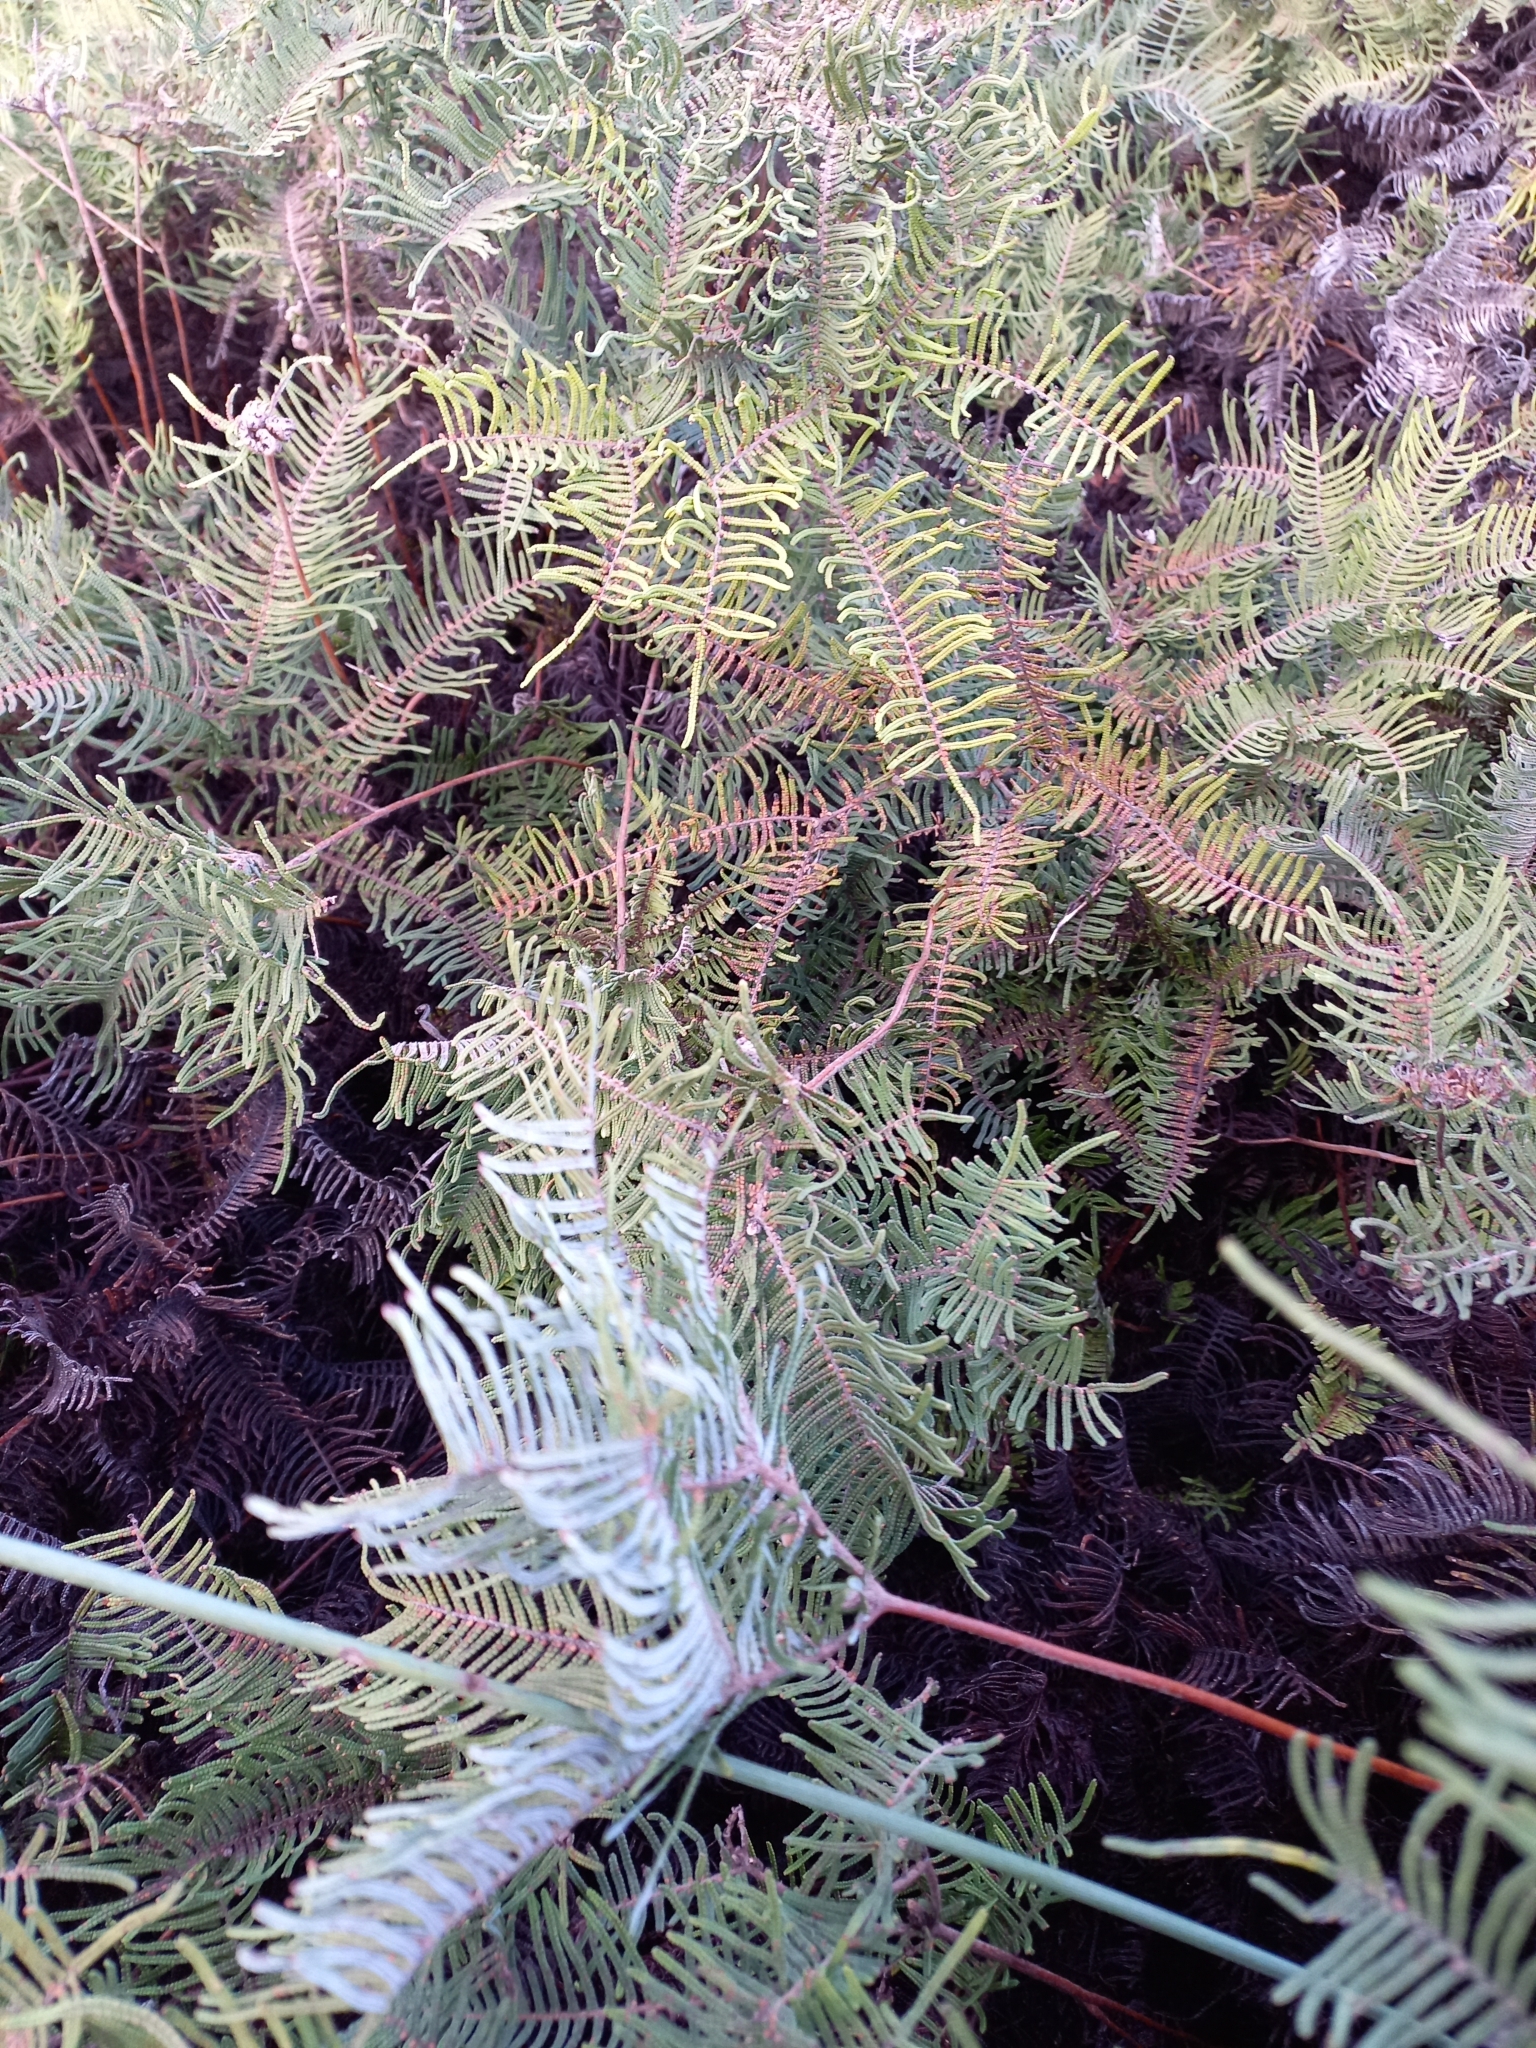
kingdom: Plantae
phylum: Tracheophyta
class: Polypodiopsida
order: Gleicheniales
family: Gleicheniaceae
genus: Gleichenia
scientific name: Gleichenia dicarpa
